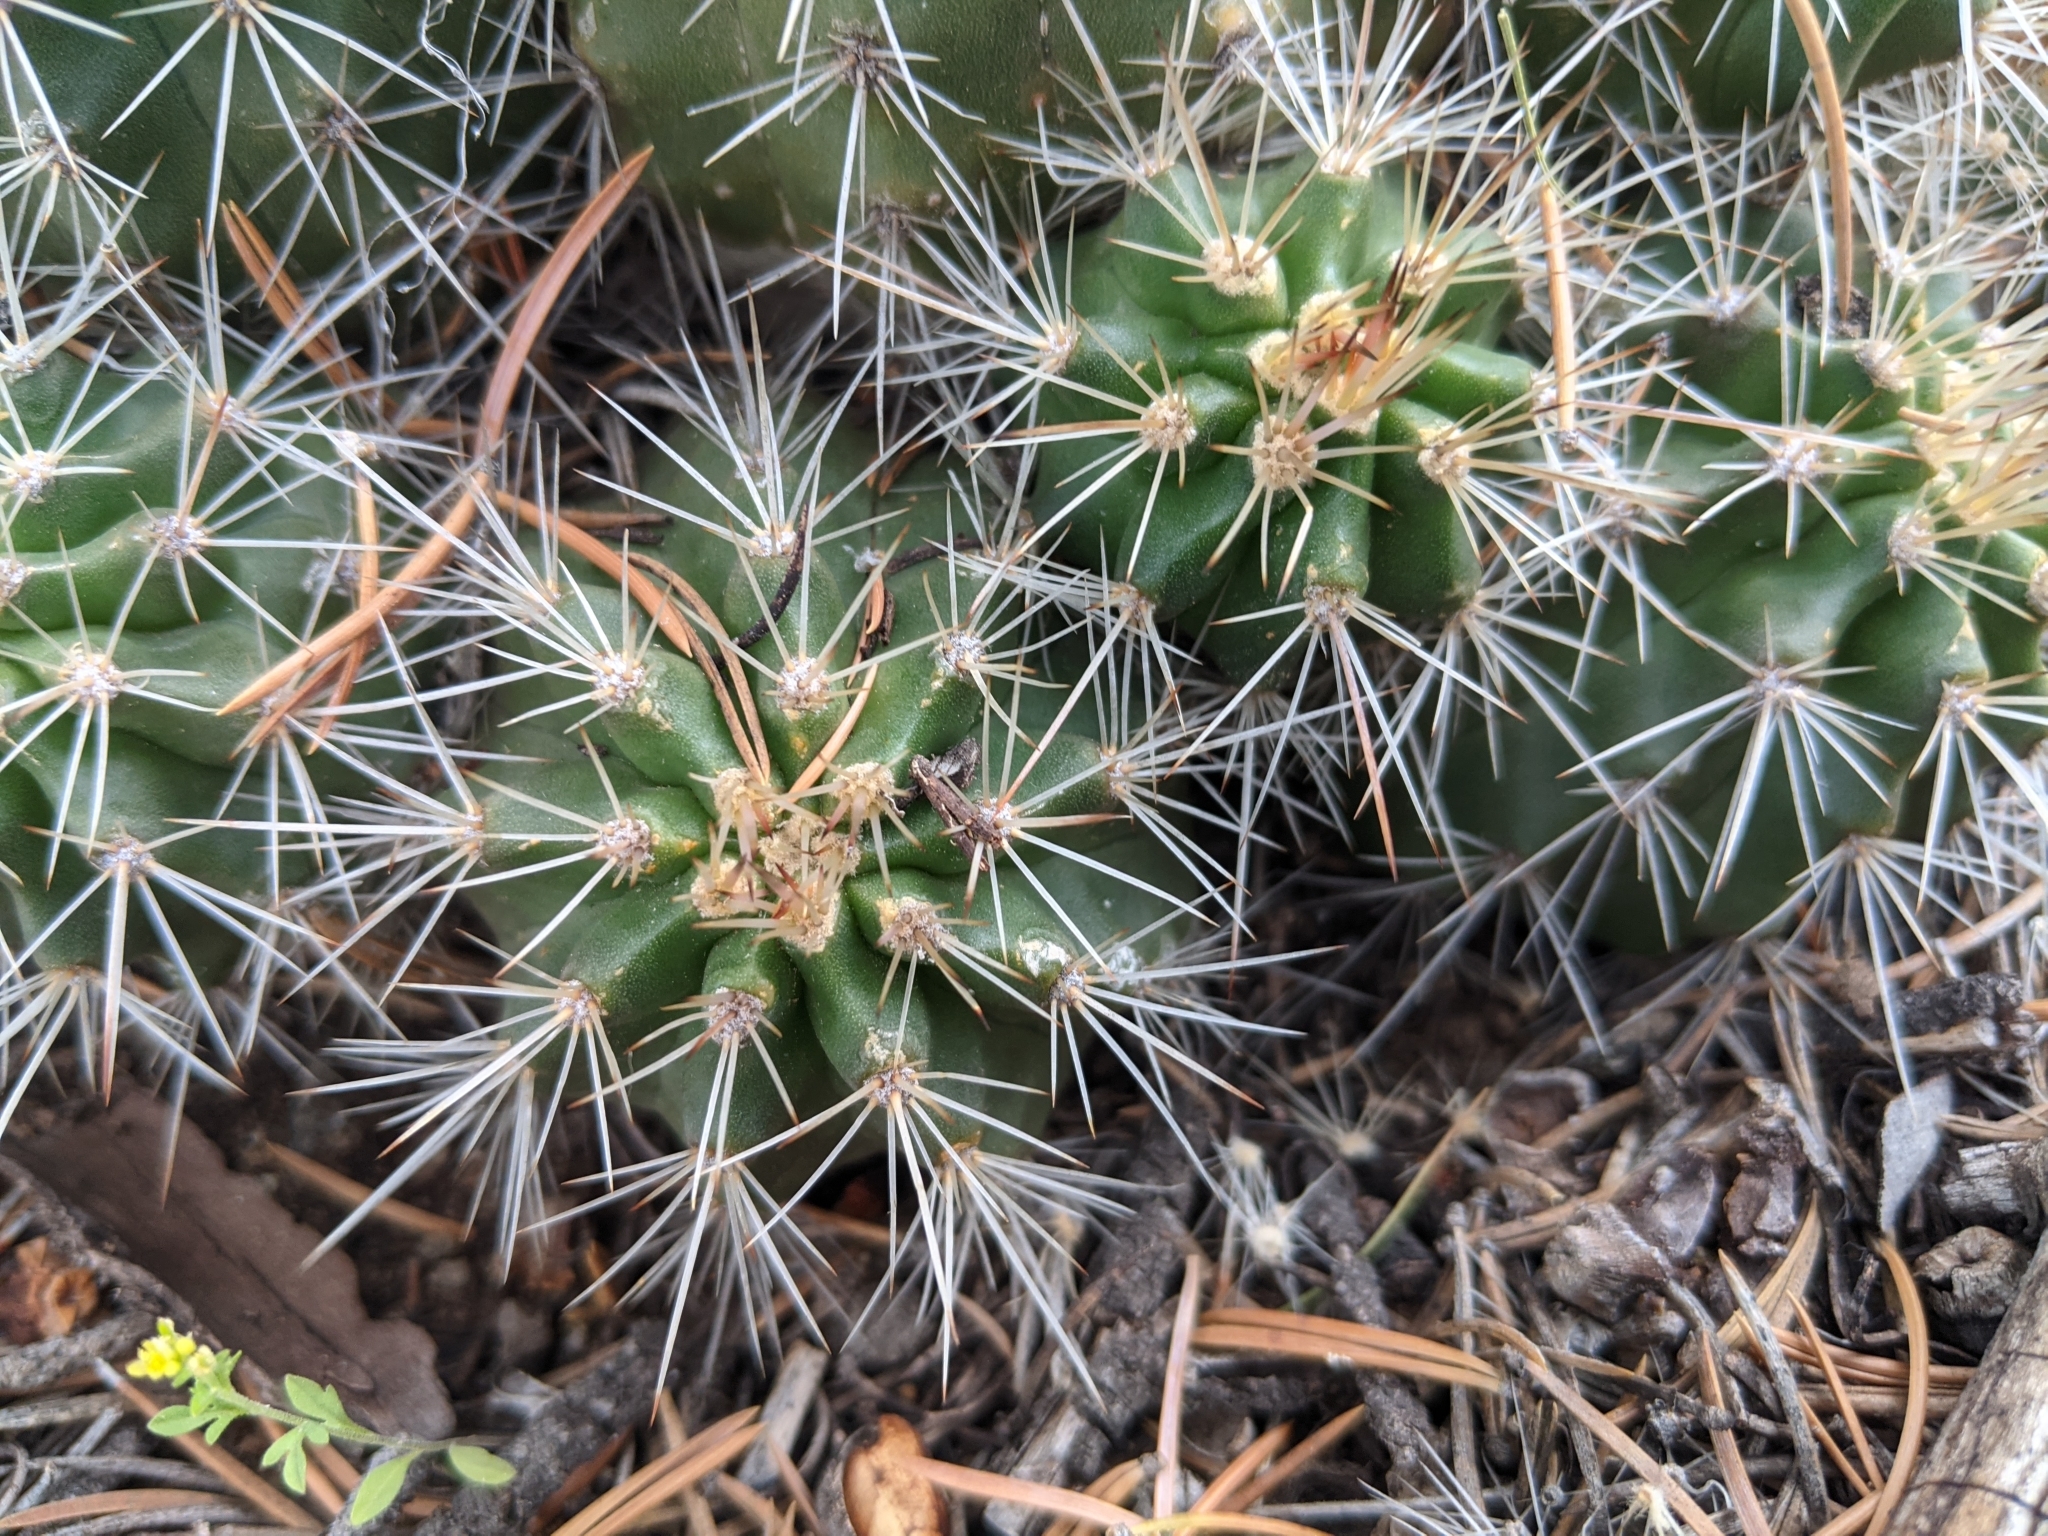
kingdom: Plantae
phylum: Tracheophyta
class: Magnoliopsida
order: Caryophyllales
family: Cactaceae
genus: Echinocereus
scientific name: Echinocereus coccineus
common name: Scarlet hedgehog cactus
